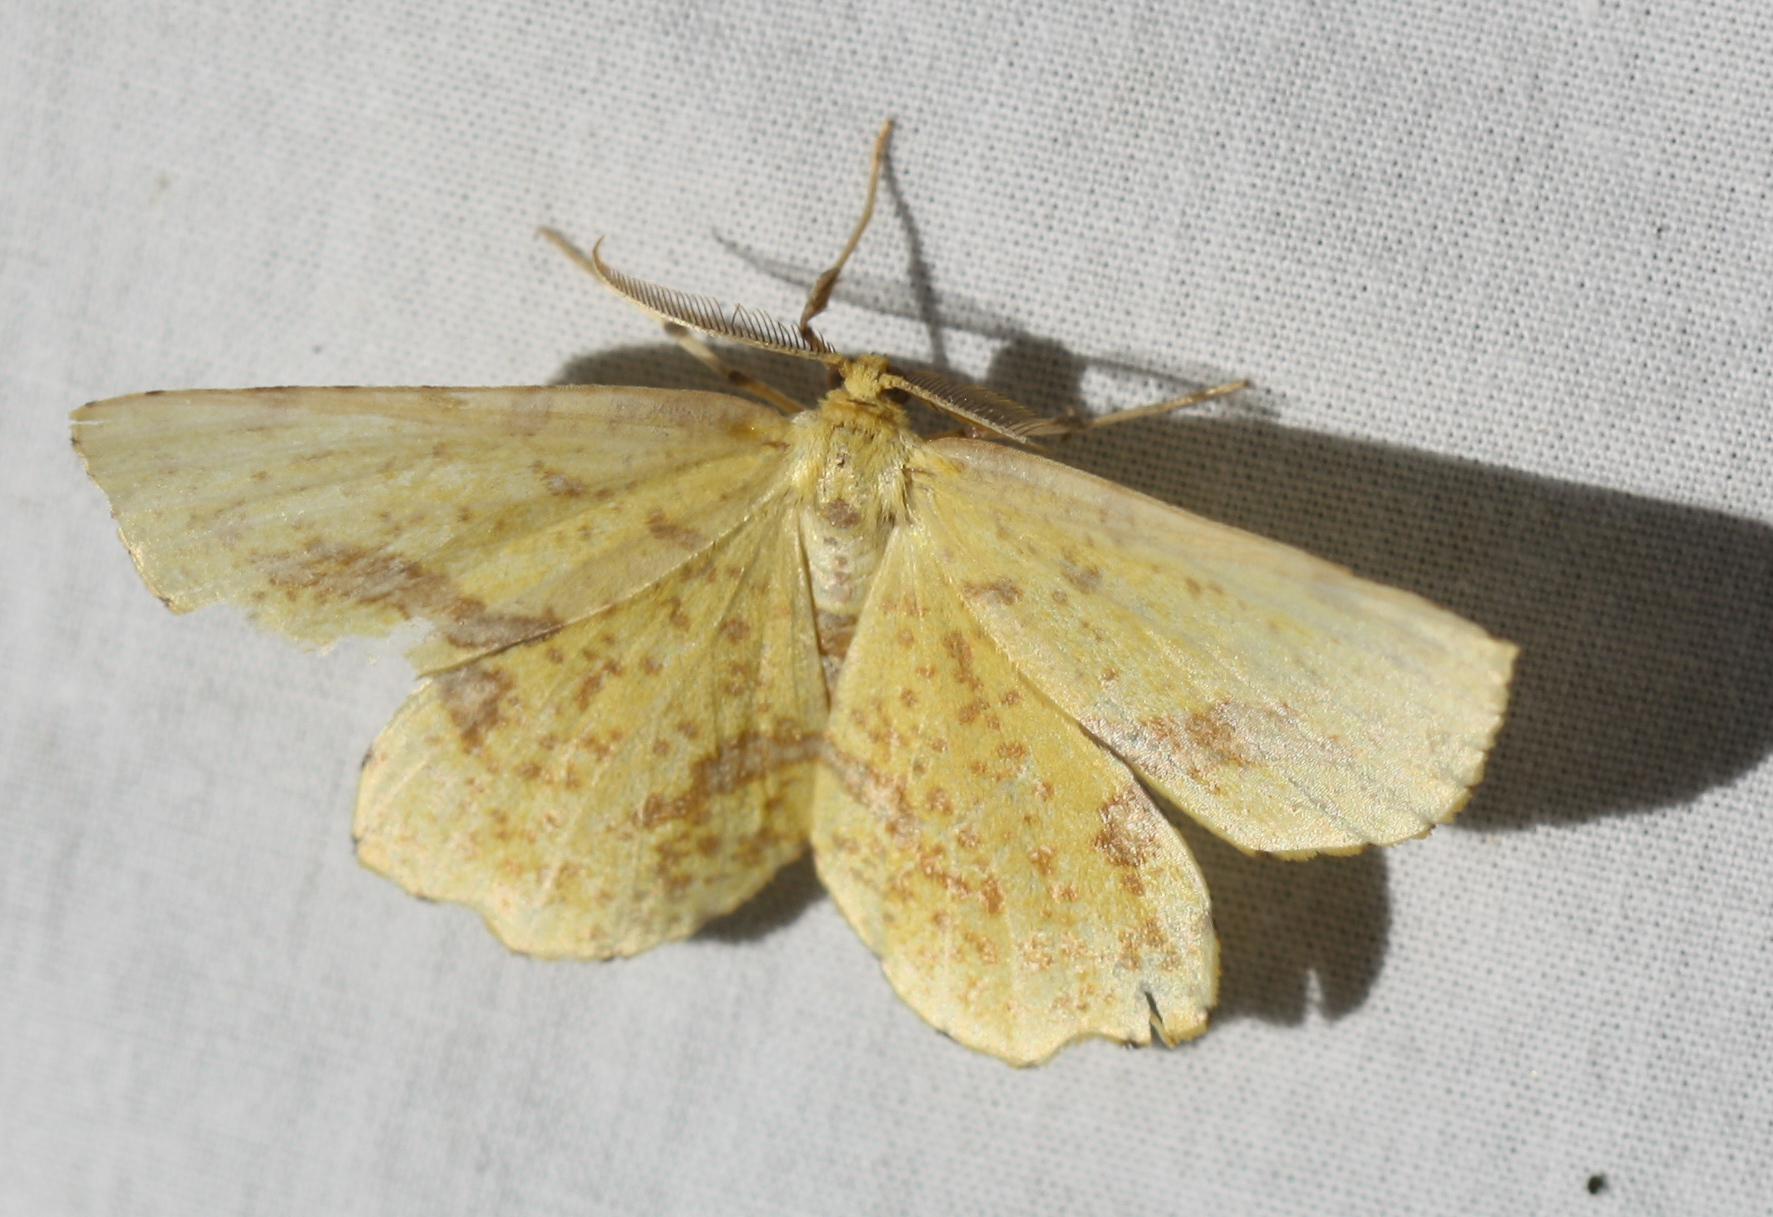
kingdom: Animalia
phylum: Arthropoda
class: Insecta
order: Lepidoptera
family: Geometridae
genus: Xanthotype
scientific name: Xanthotype
